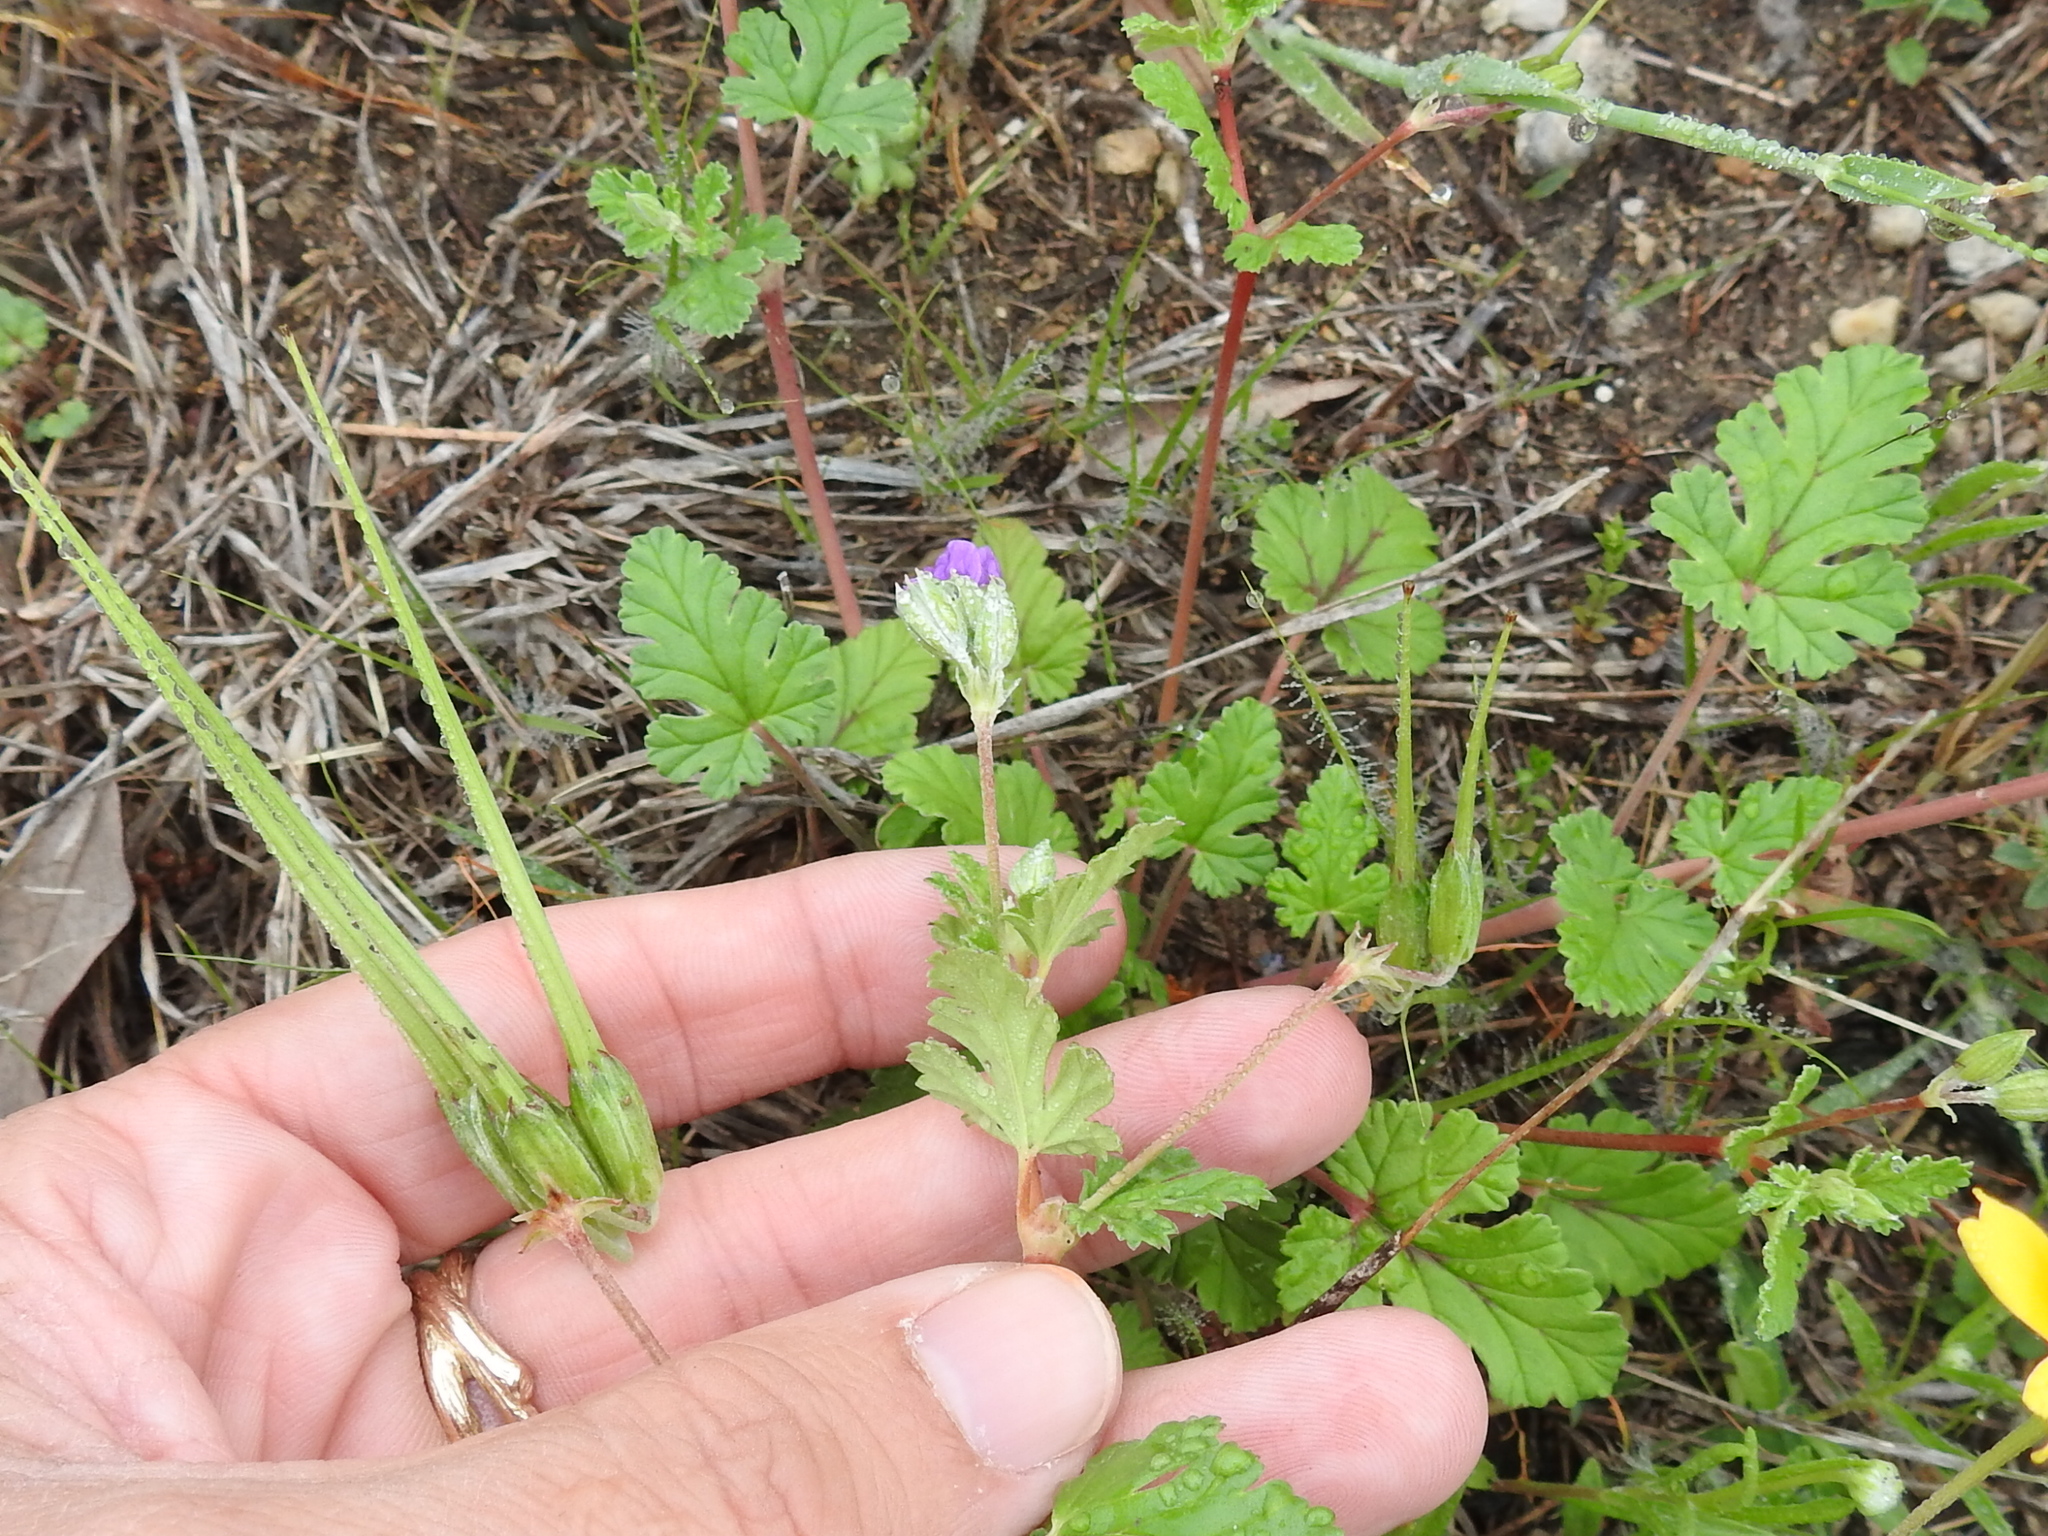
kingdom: Plantae
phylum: Tracheophyta
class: Magnoliopsida
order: Geraniales
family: Geraniaceae
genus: Erodium
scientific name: Erodium texanum
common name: Texas stork's-bill
